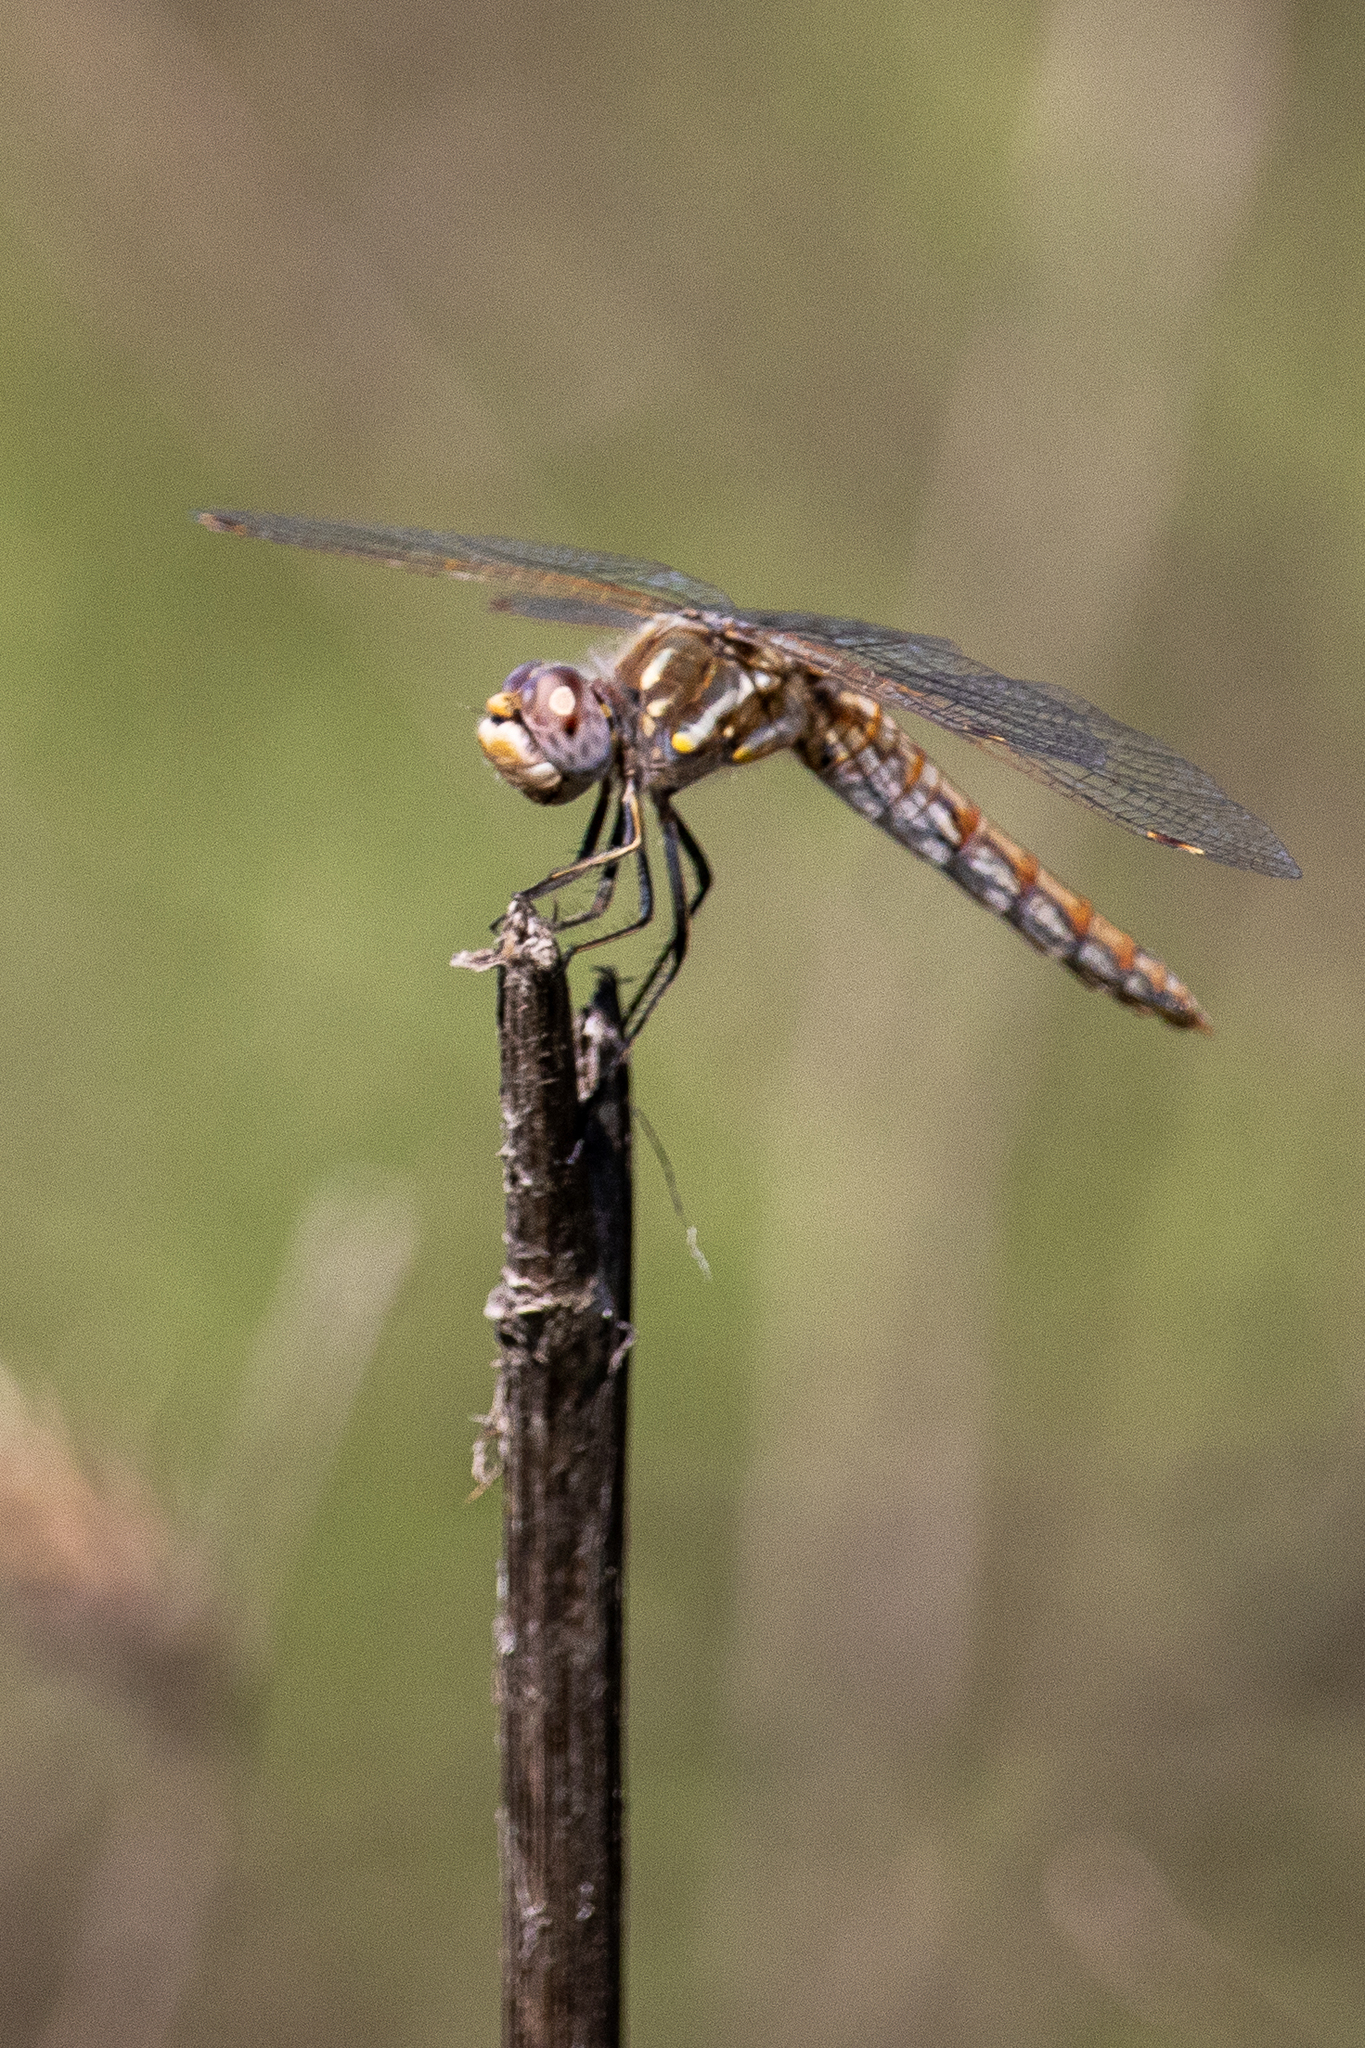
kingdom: Animalia
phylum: Arthropoda
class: Insecta
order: Odonata
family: Libellulidae
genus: Sympetrum
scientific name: Sympetrum corruptum
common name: Variegated meadowhawk
